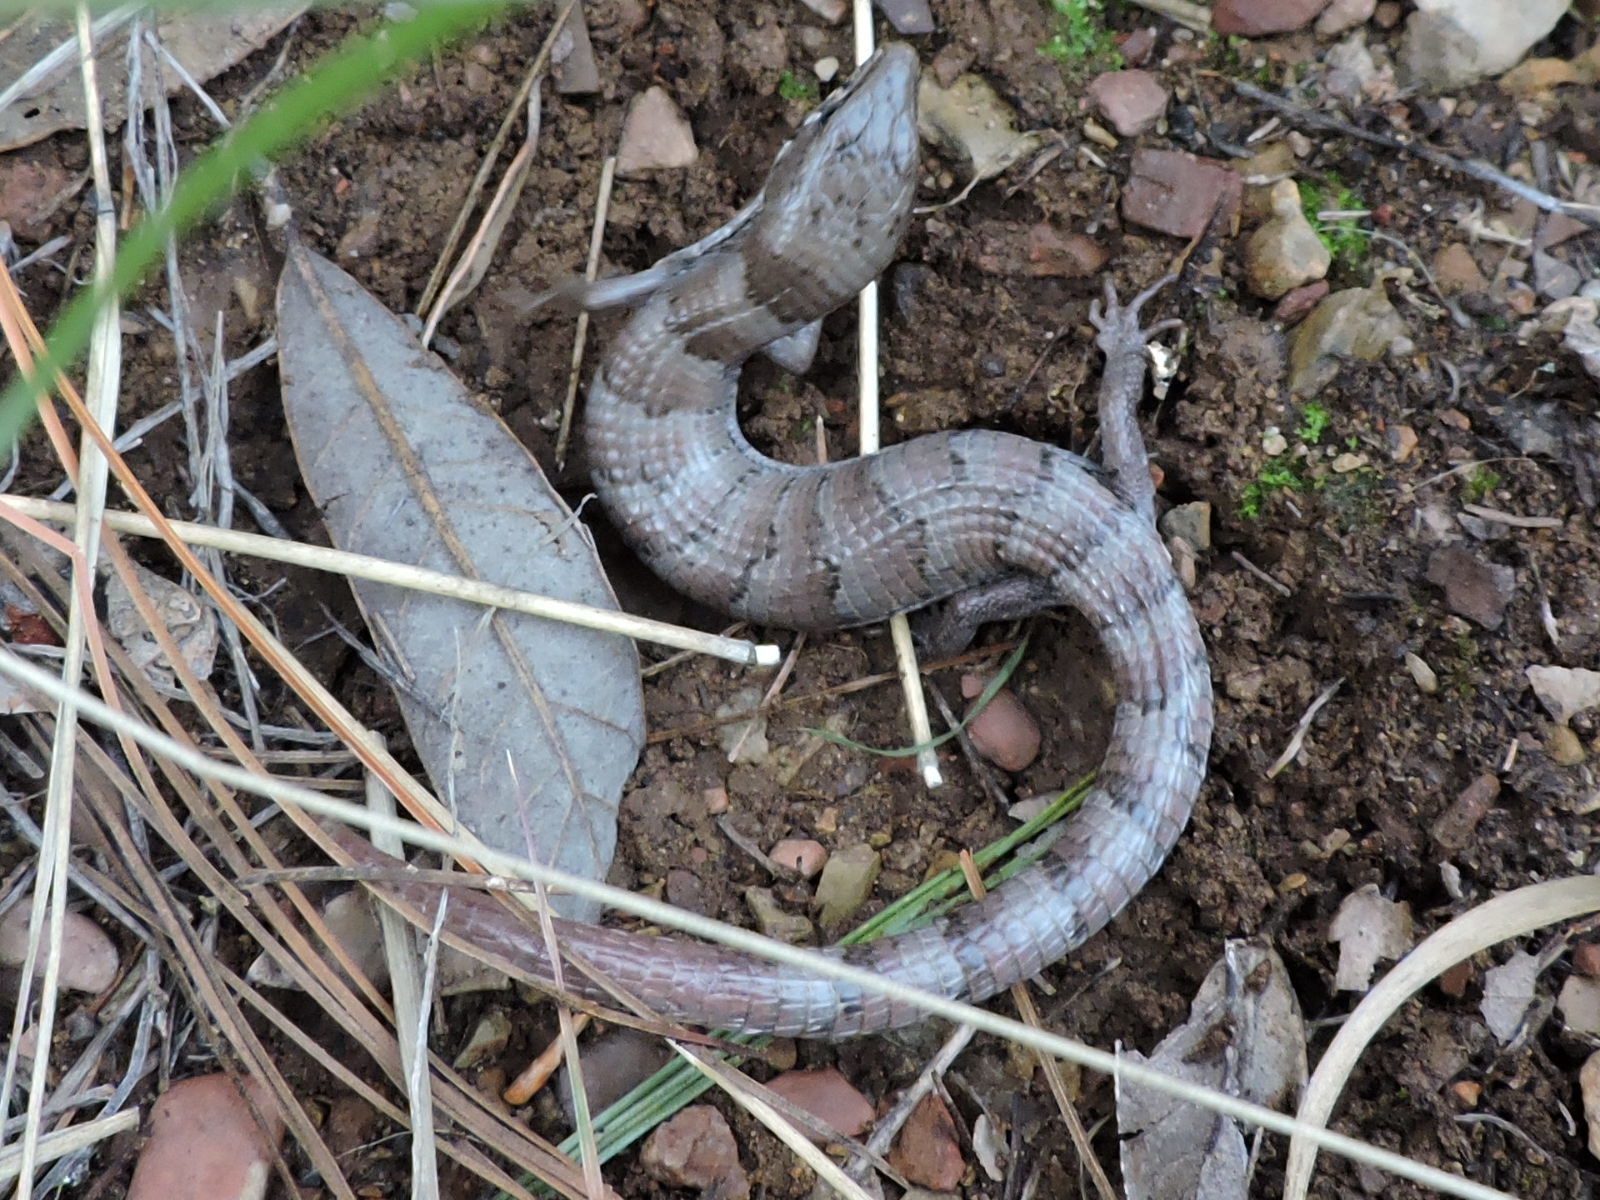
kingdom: Animalia
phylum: Chordata
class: Squamata
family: Anguidae
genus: Elgaria
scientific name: Elgaria kingii
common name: Madrean alligator lizard
